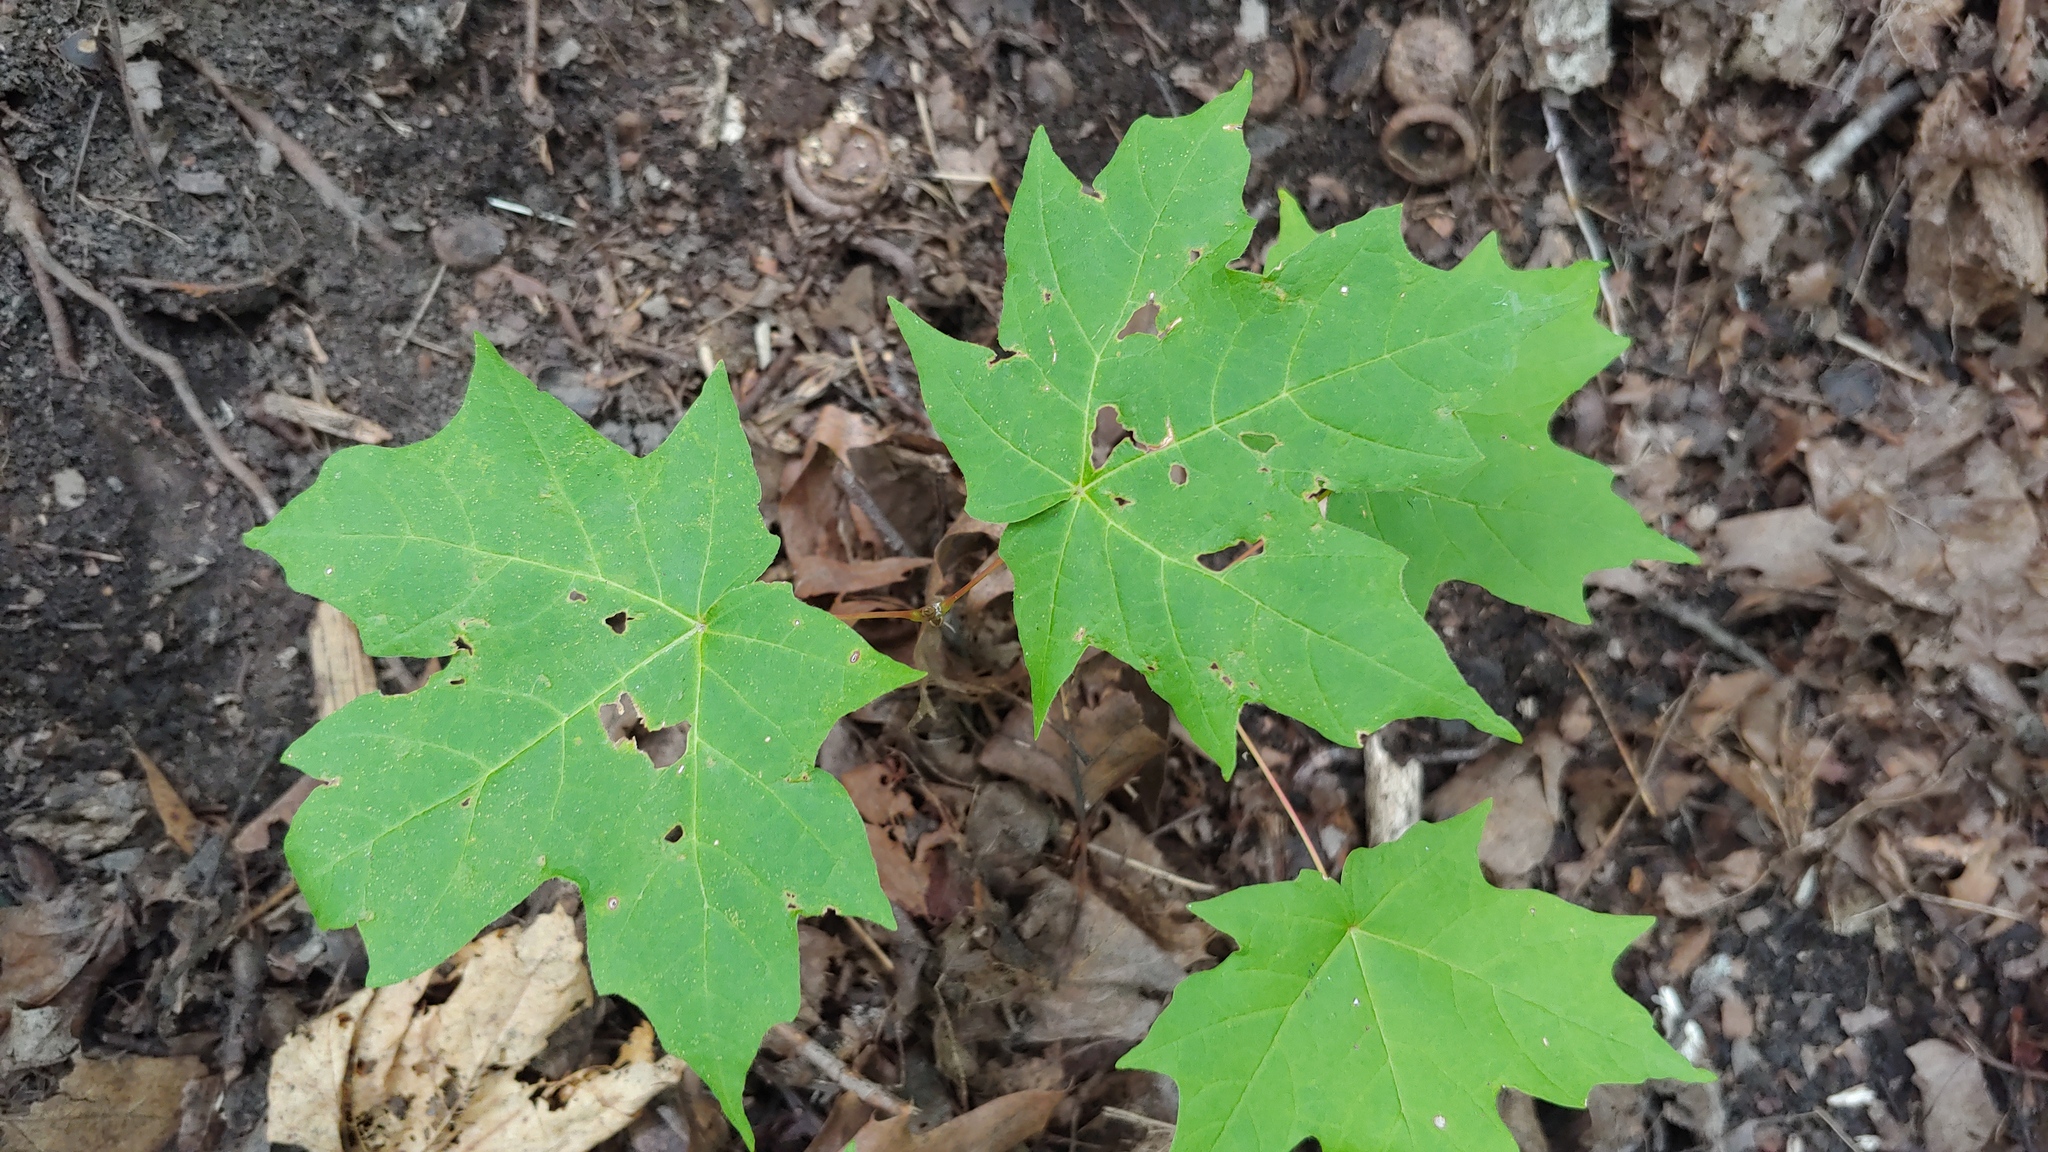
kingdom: Plantae
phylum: Tracheophyta
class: Magnoliopsida
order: Sapindales
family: Sapindaceae
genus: Acer
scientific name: Acer saccharum
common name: Sugar maple
